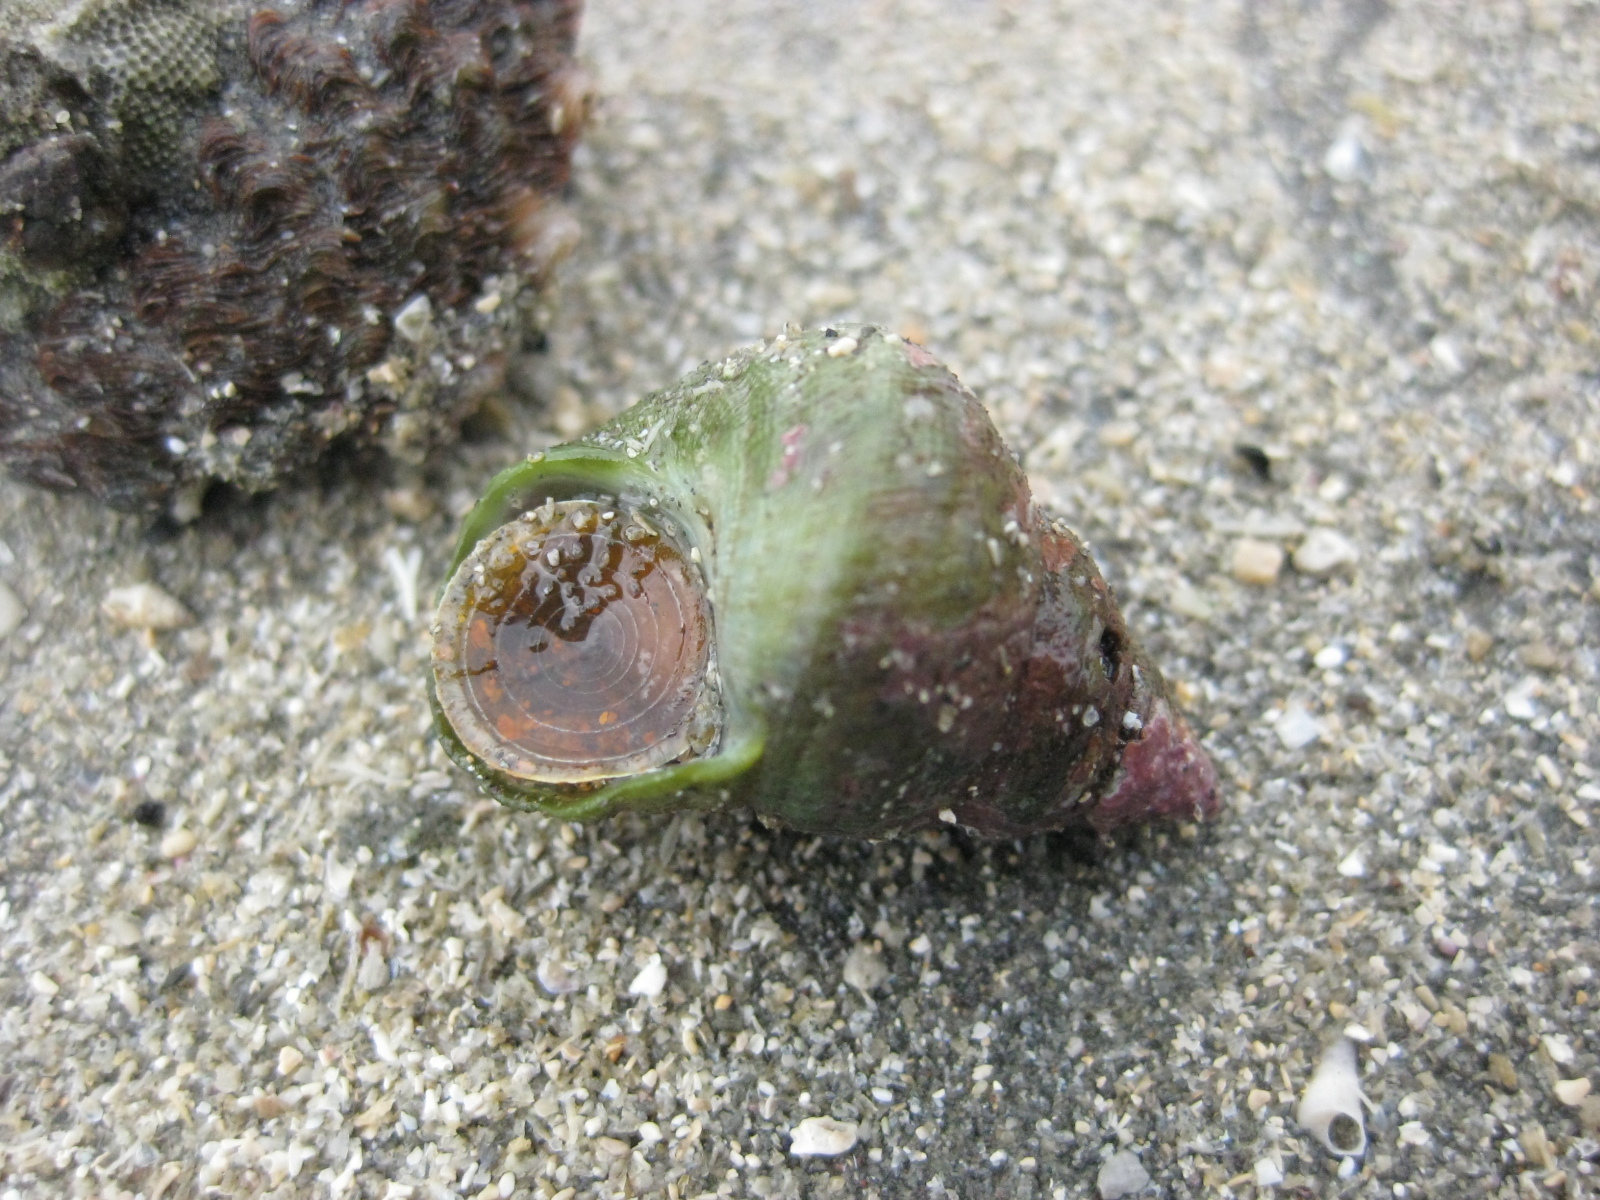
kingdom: Animalia
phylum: Mollusca
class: Gastropoda
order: Trochida
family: Trochidae
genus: Micrelenchus
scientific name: Micrelenchus purpureus
